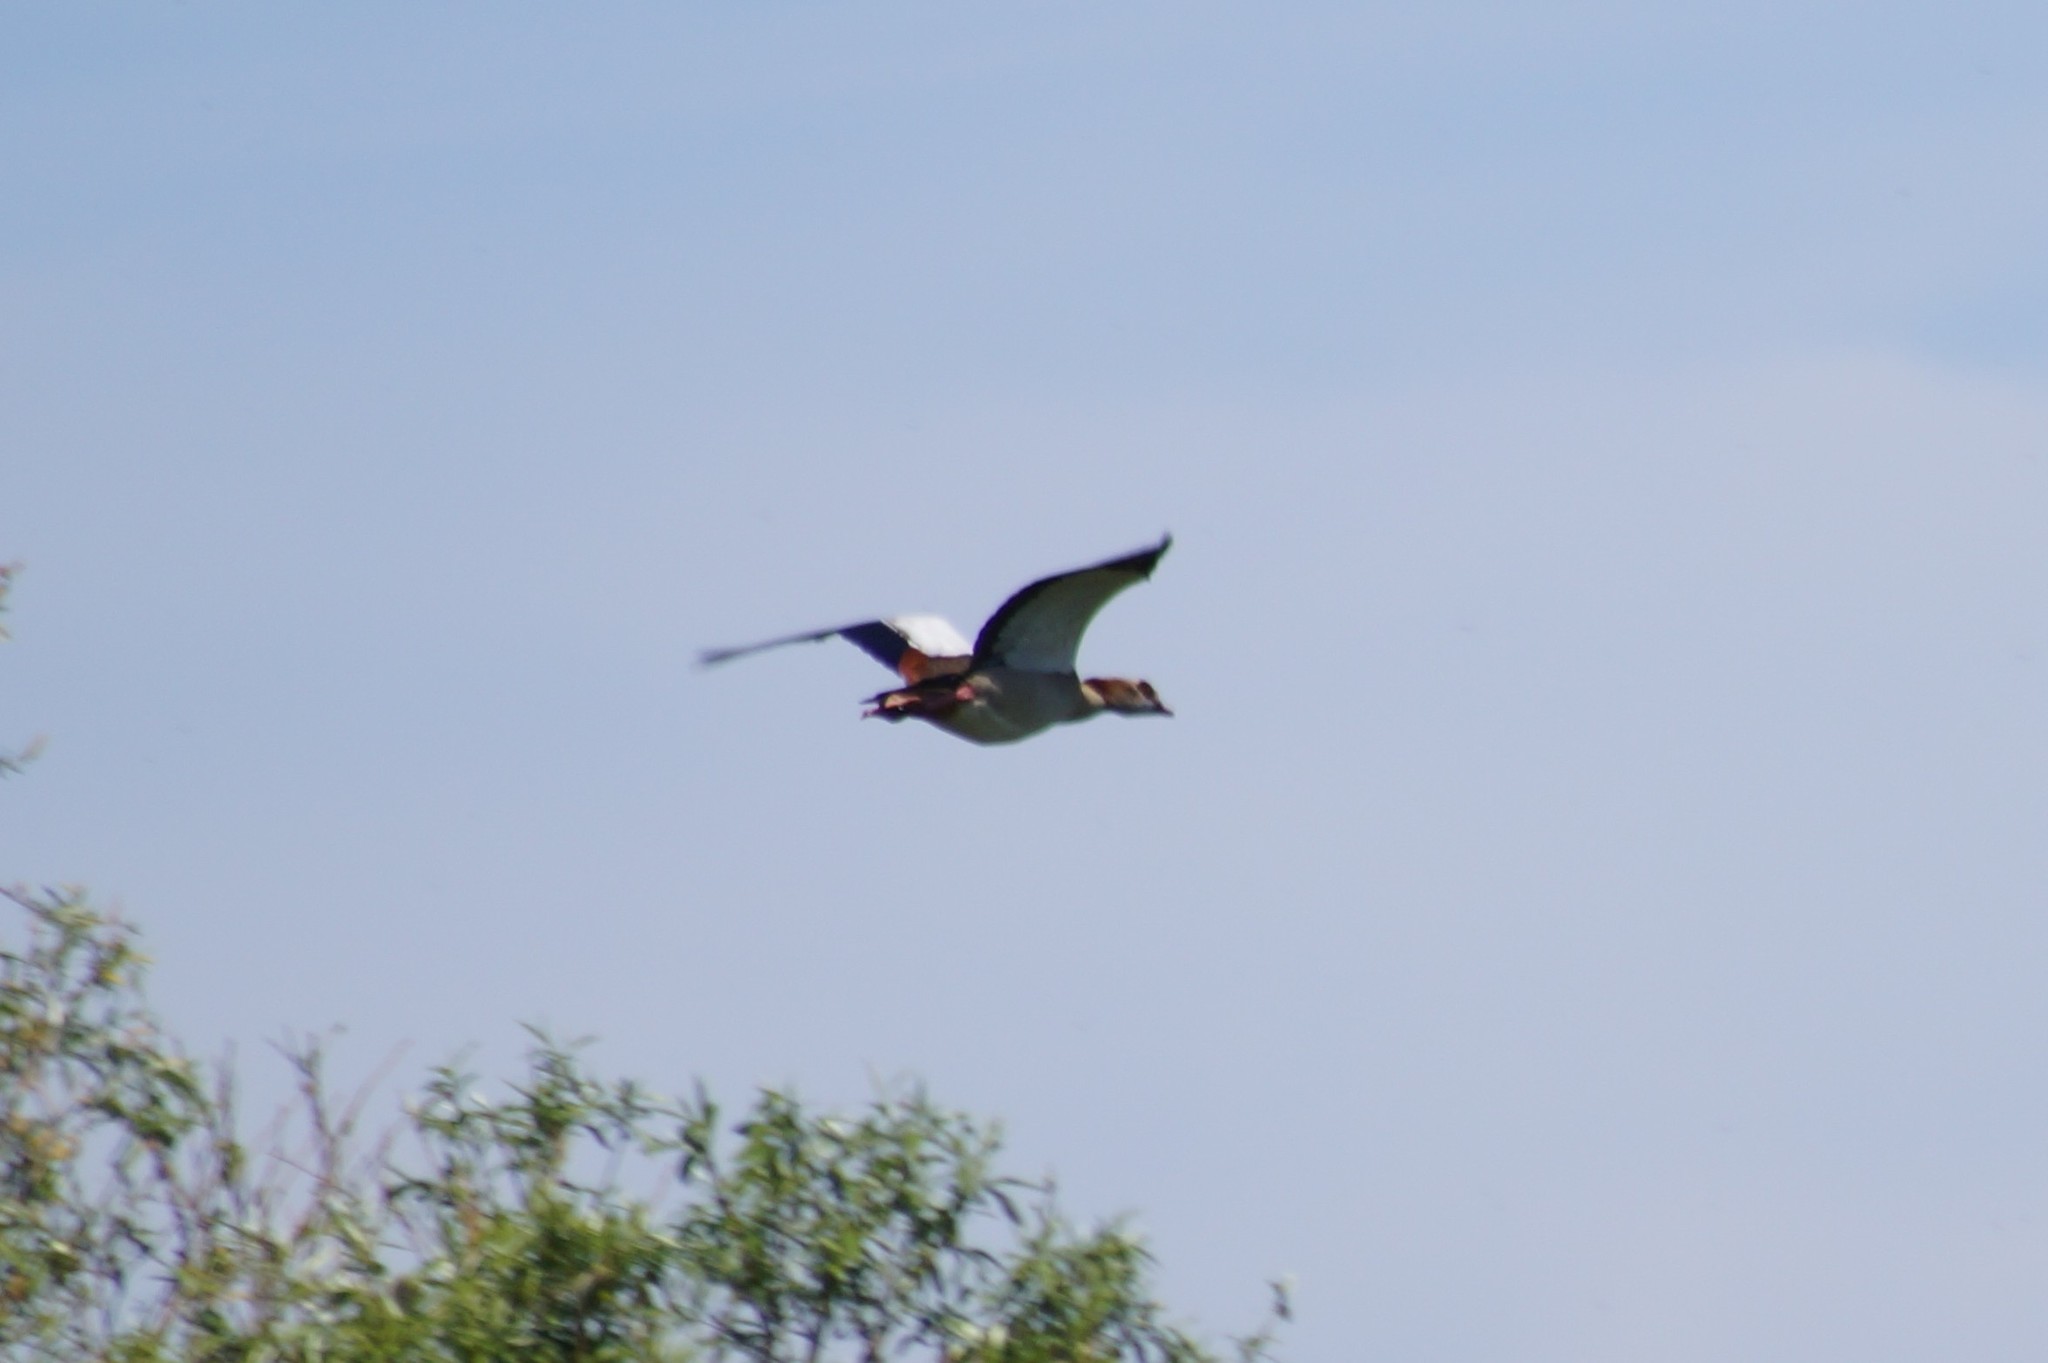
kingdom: Animalia
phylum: Chordata
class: Aves
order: Anseriformes
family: Anatidae
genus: Alopochen
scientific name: Alopochen aegyptiaca
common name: Egyptian goose
